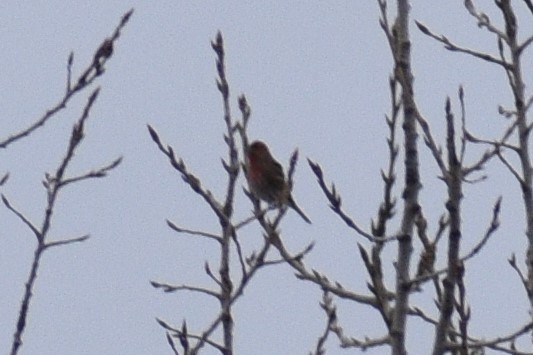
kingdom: Animalia
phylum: Chordata
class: Aves
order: Passeriformes
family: Fringillidae
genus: Haemorhous
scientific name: Haemorhous mexicanus
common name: House finch
